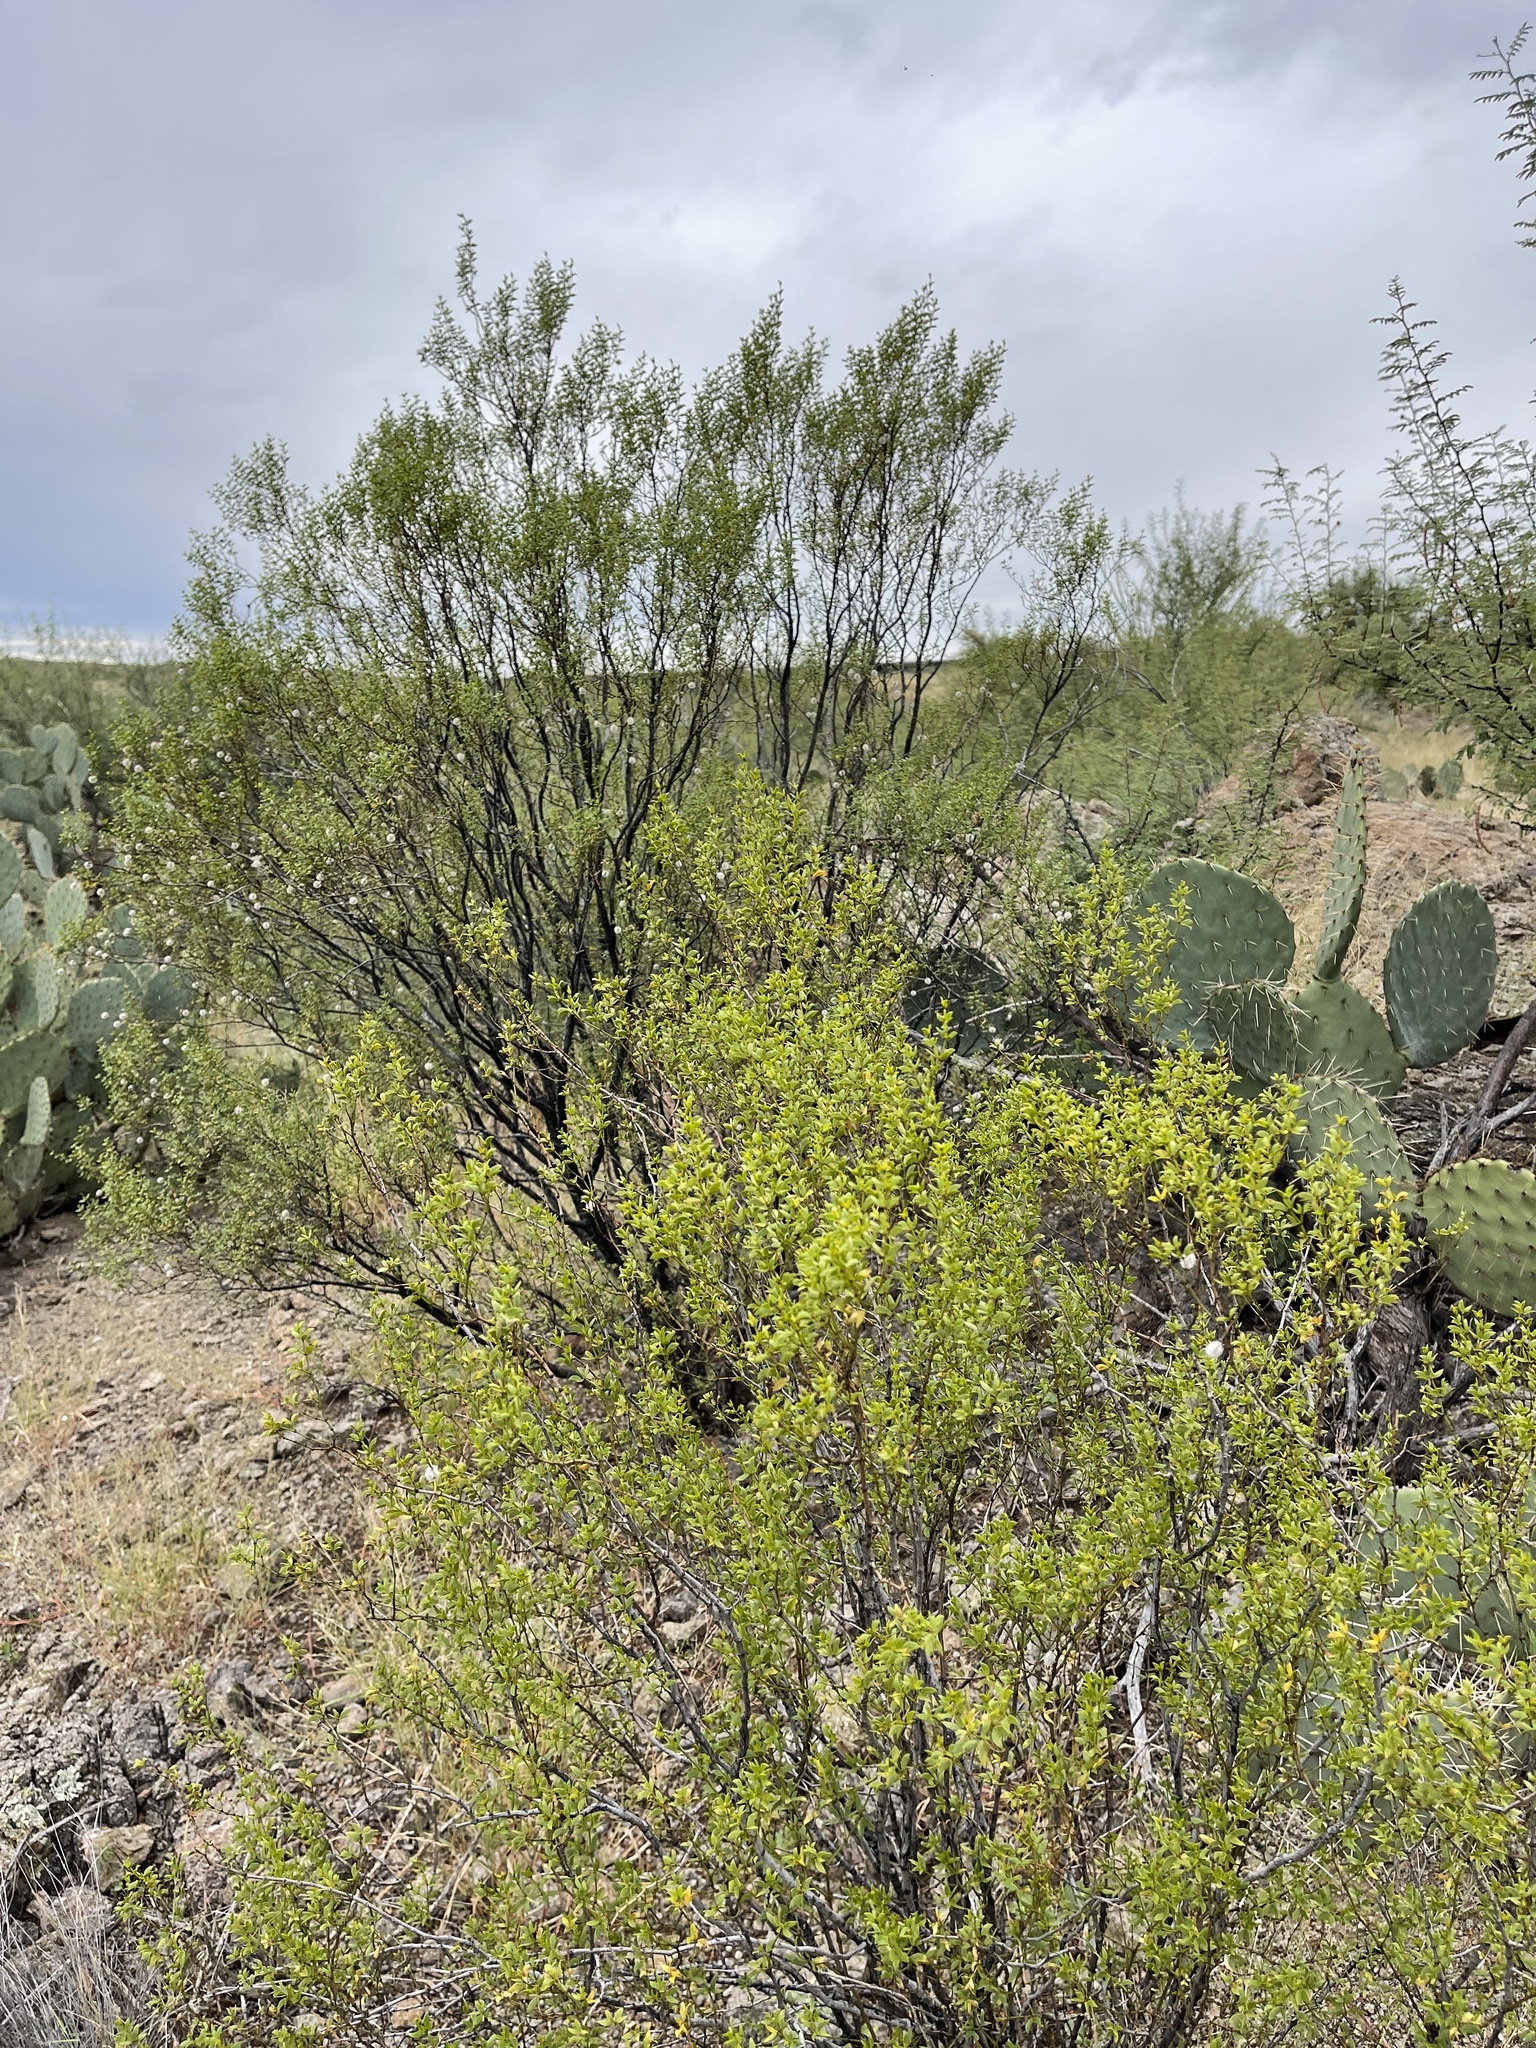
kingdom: Plantae
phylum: Tracheophyta
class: Magnoliopsida
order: Zygophyllales
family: Zygophyllaceae
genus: Larrea
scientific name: Larrea tridentata
